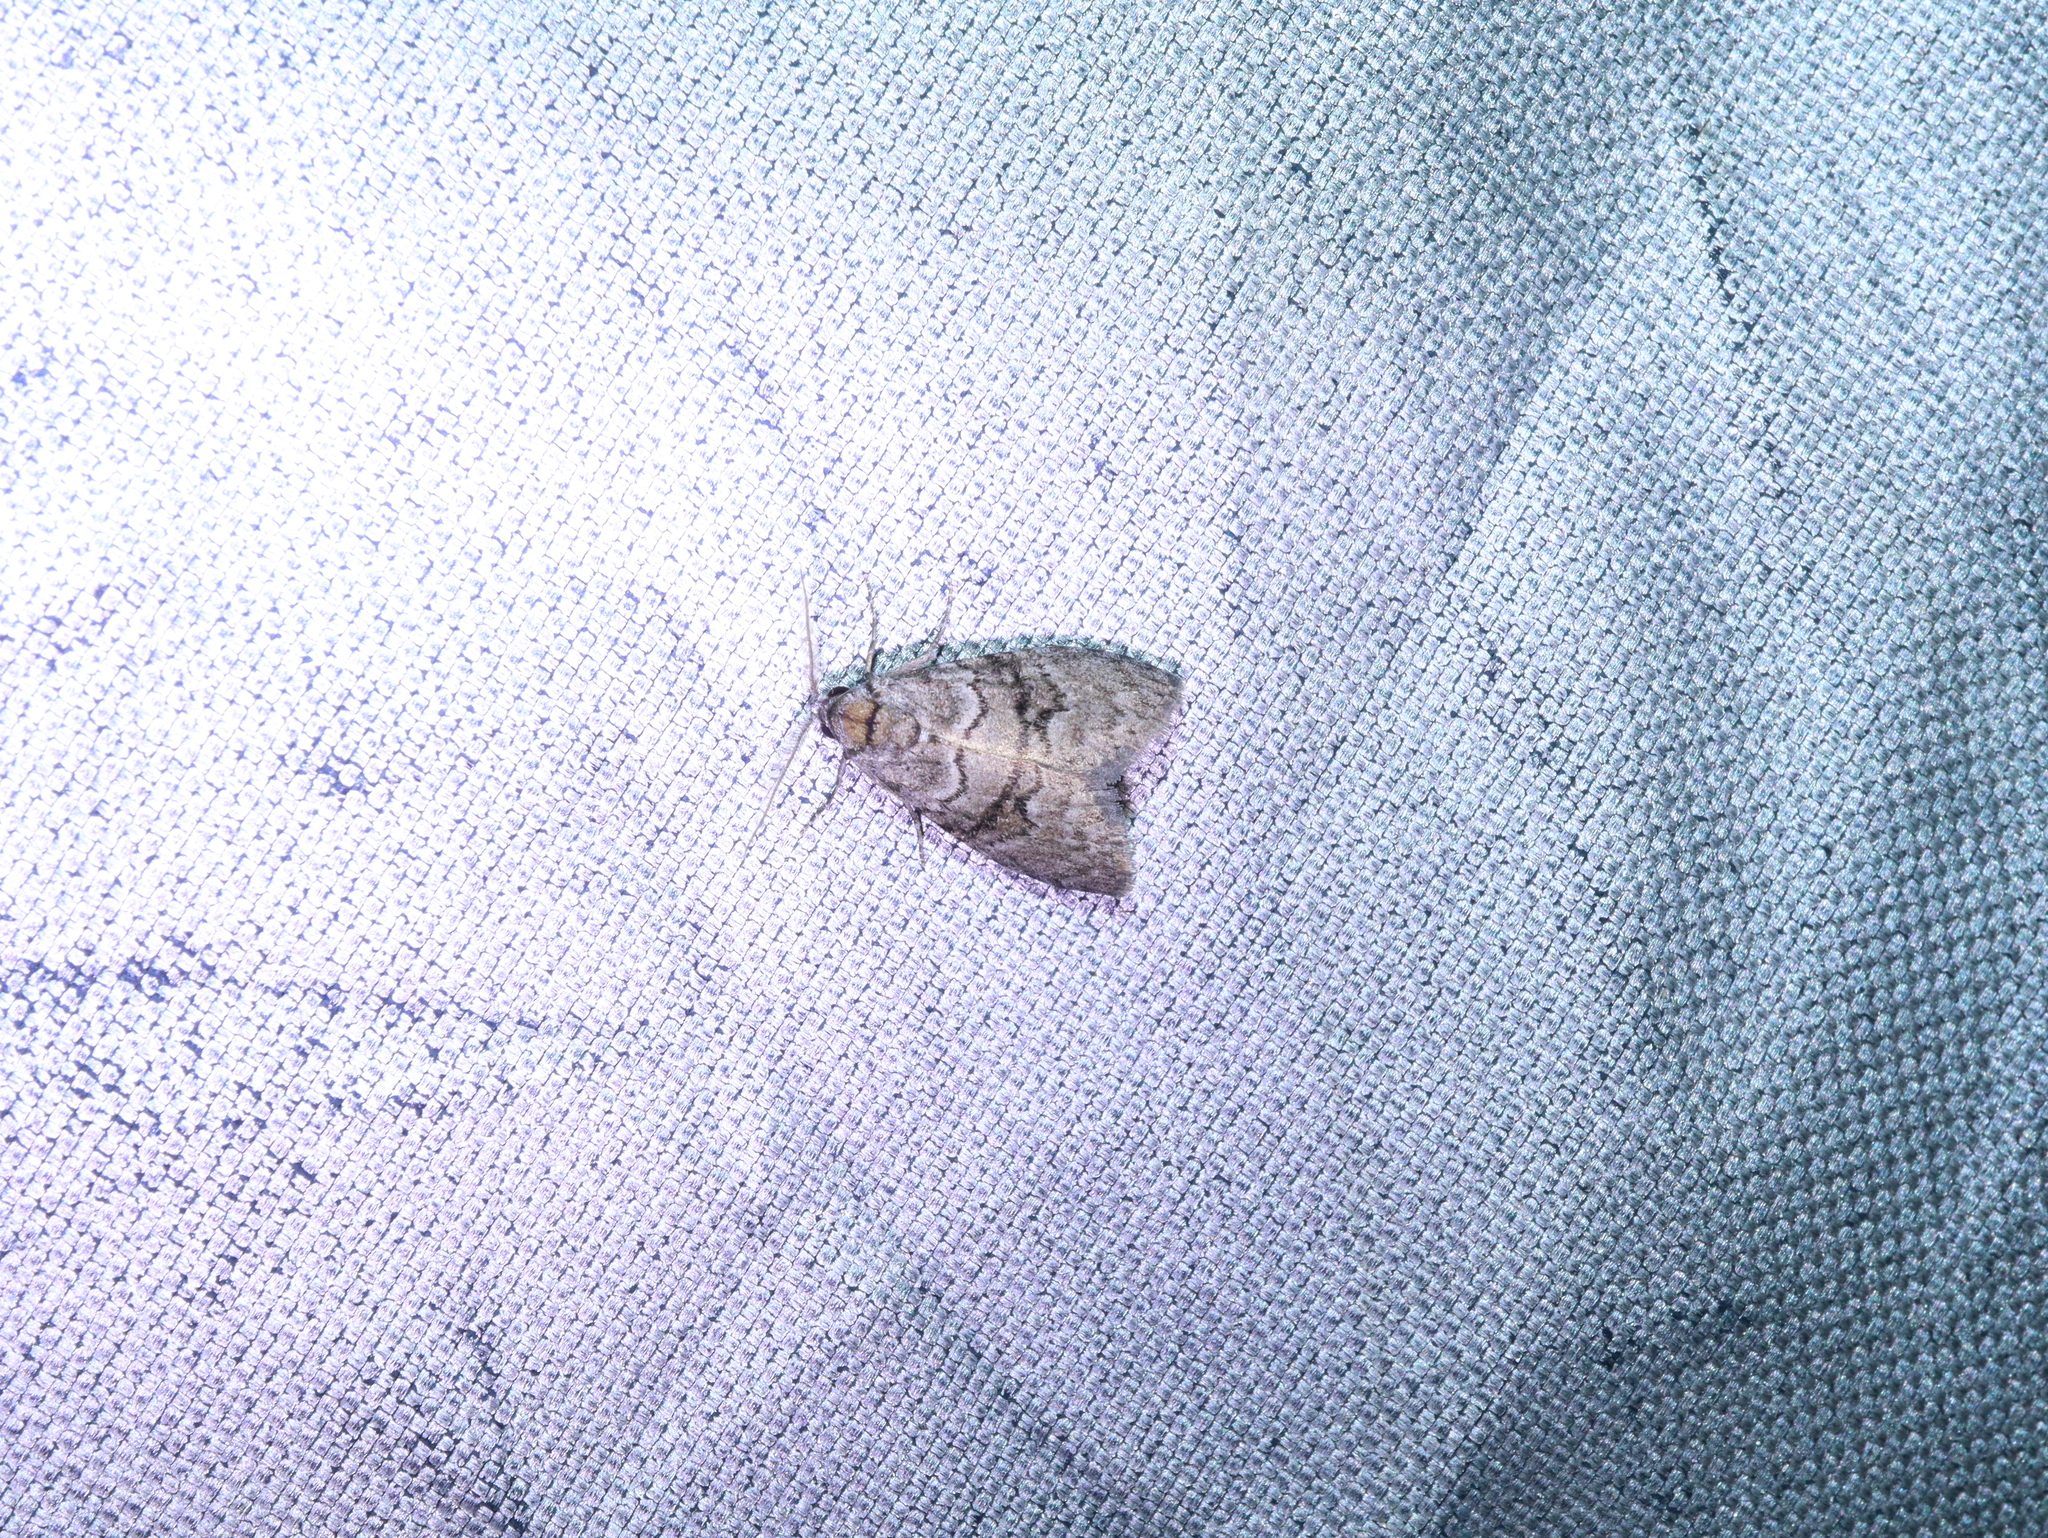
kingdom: Animalia
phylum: Arthropoda
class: Insecta
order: Lepidoptera
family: Nolidae
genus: Uraba
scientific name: Uraba lugens
